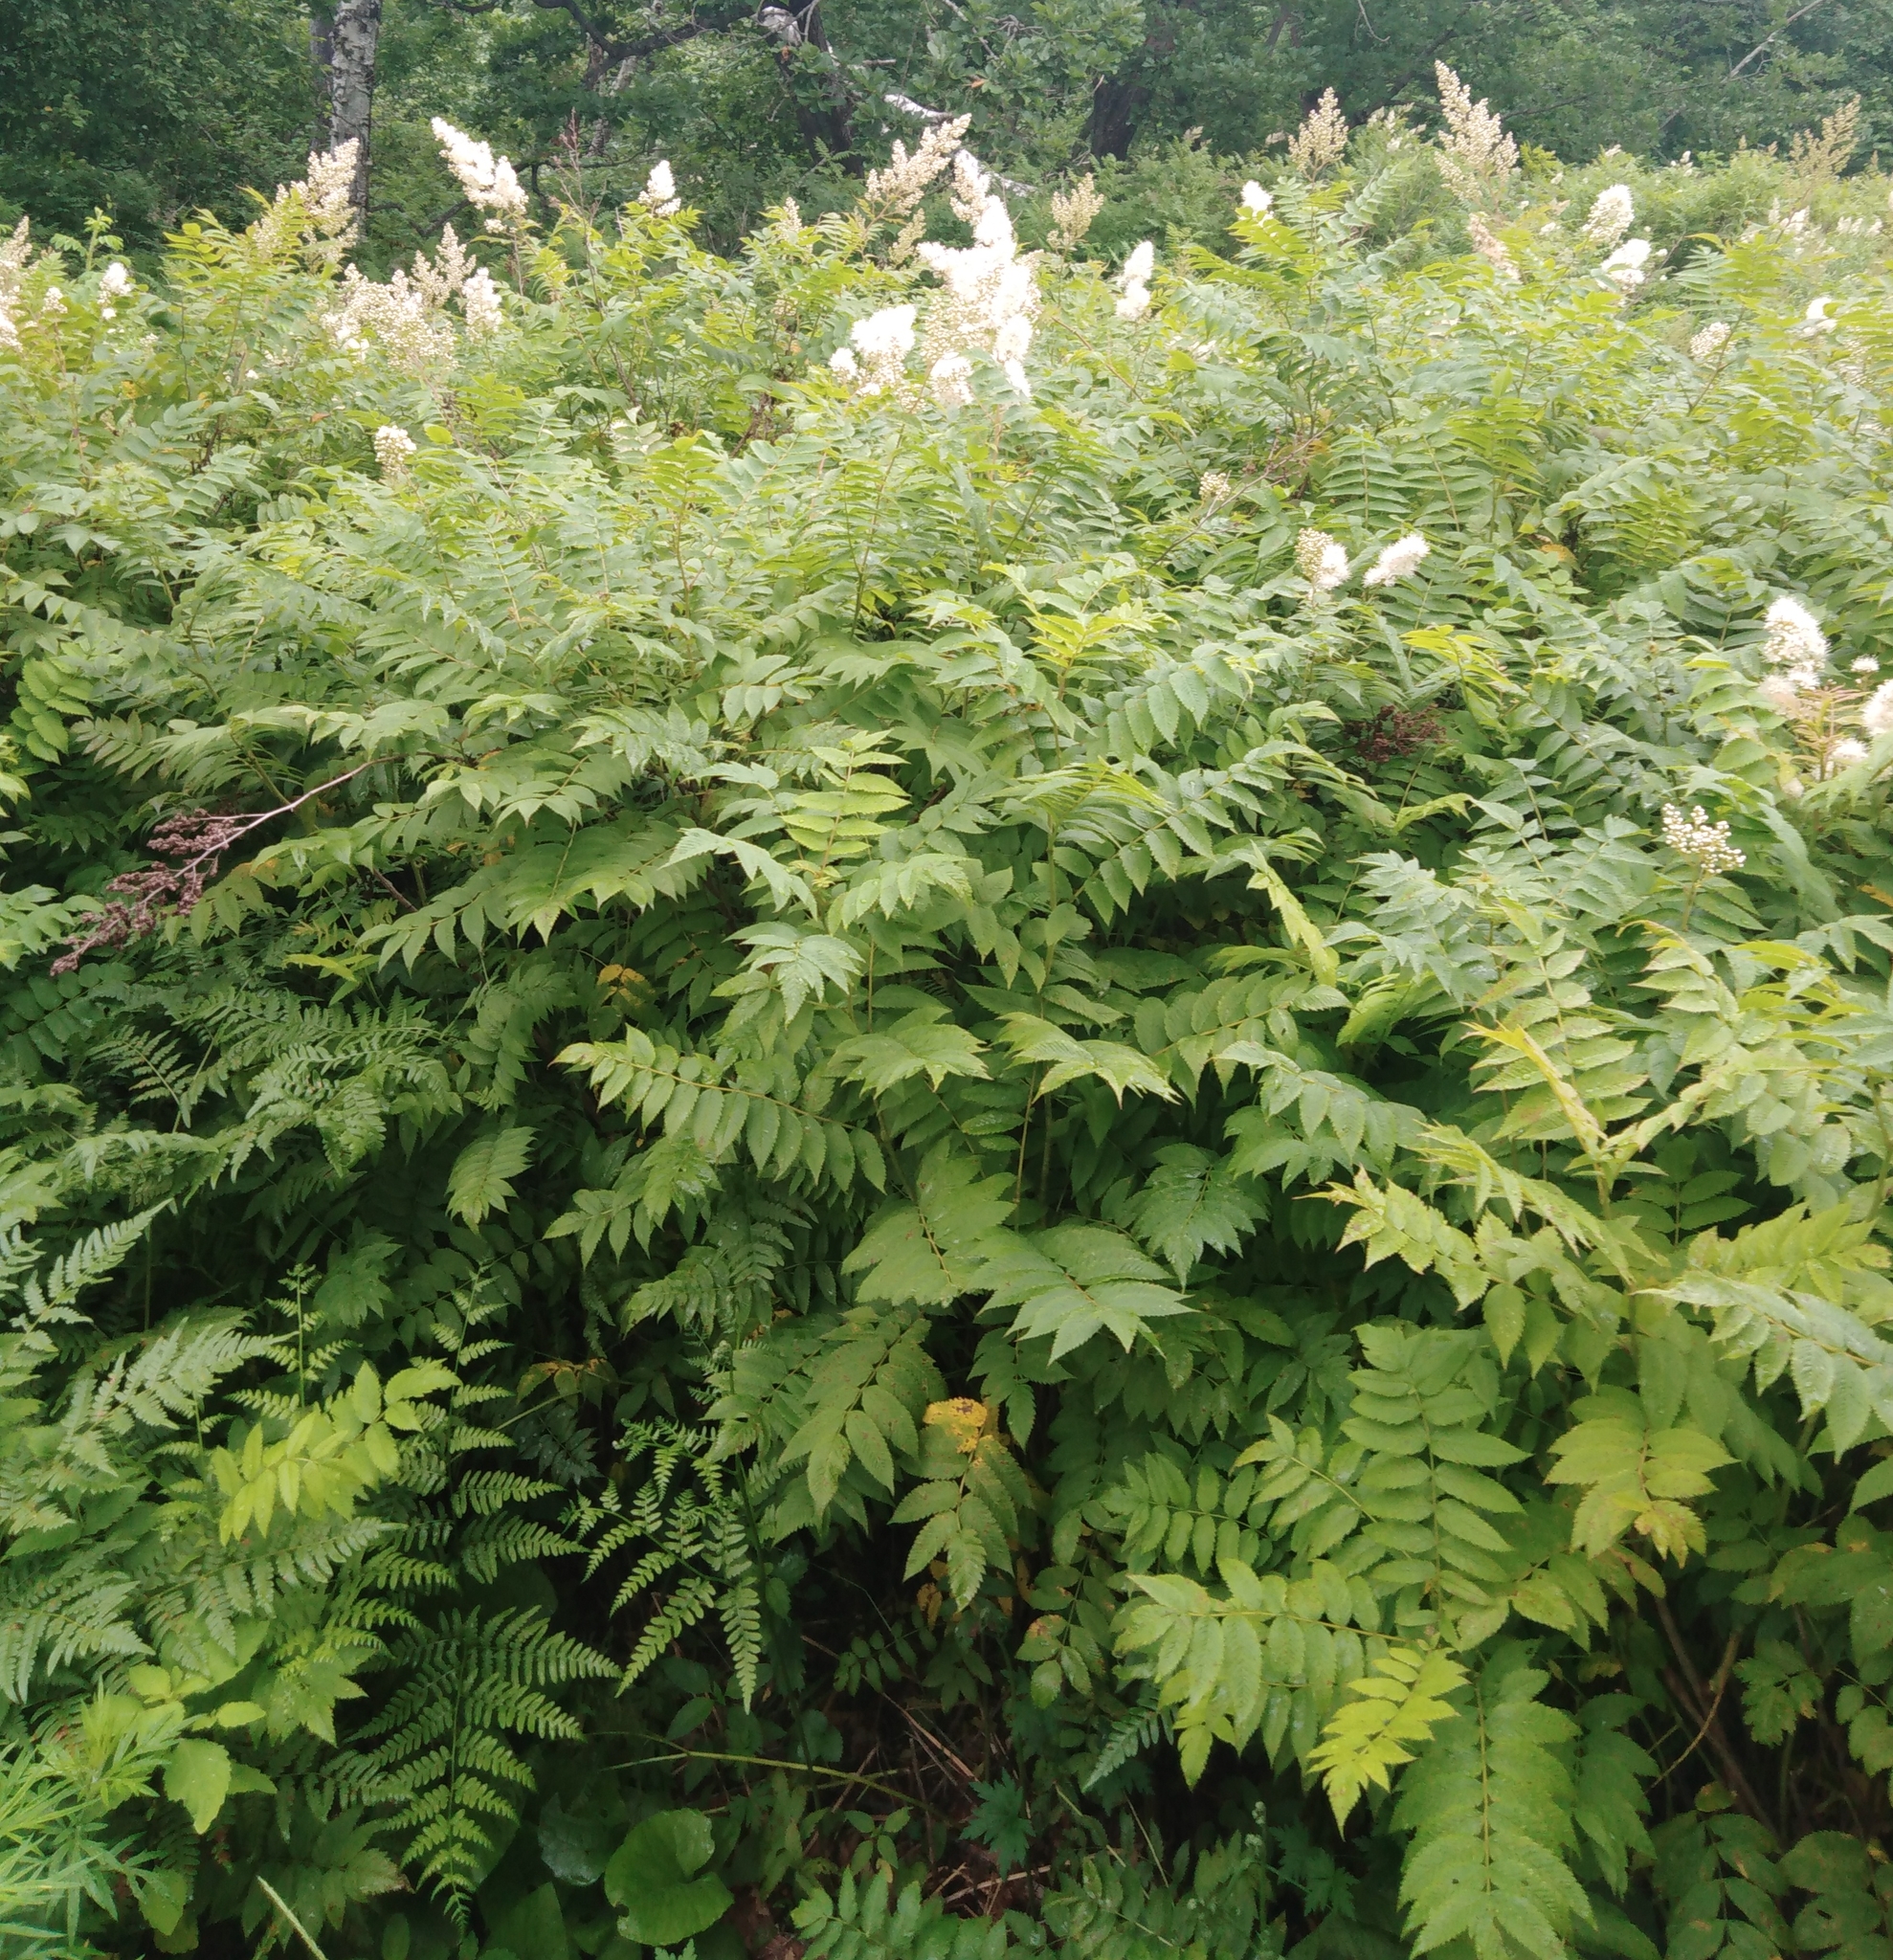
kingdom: Plantae
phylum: Tracheophyta
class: Magnoliopsida
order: Rosales
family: Rosaceae
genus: Sorbaria
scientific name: Sorbaria sorbifolia
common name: False spiraea
